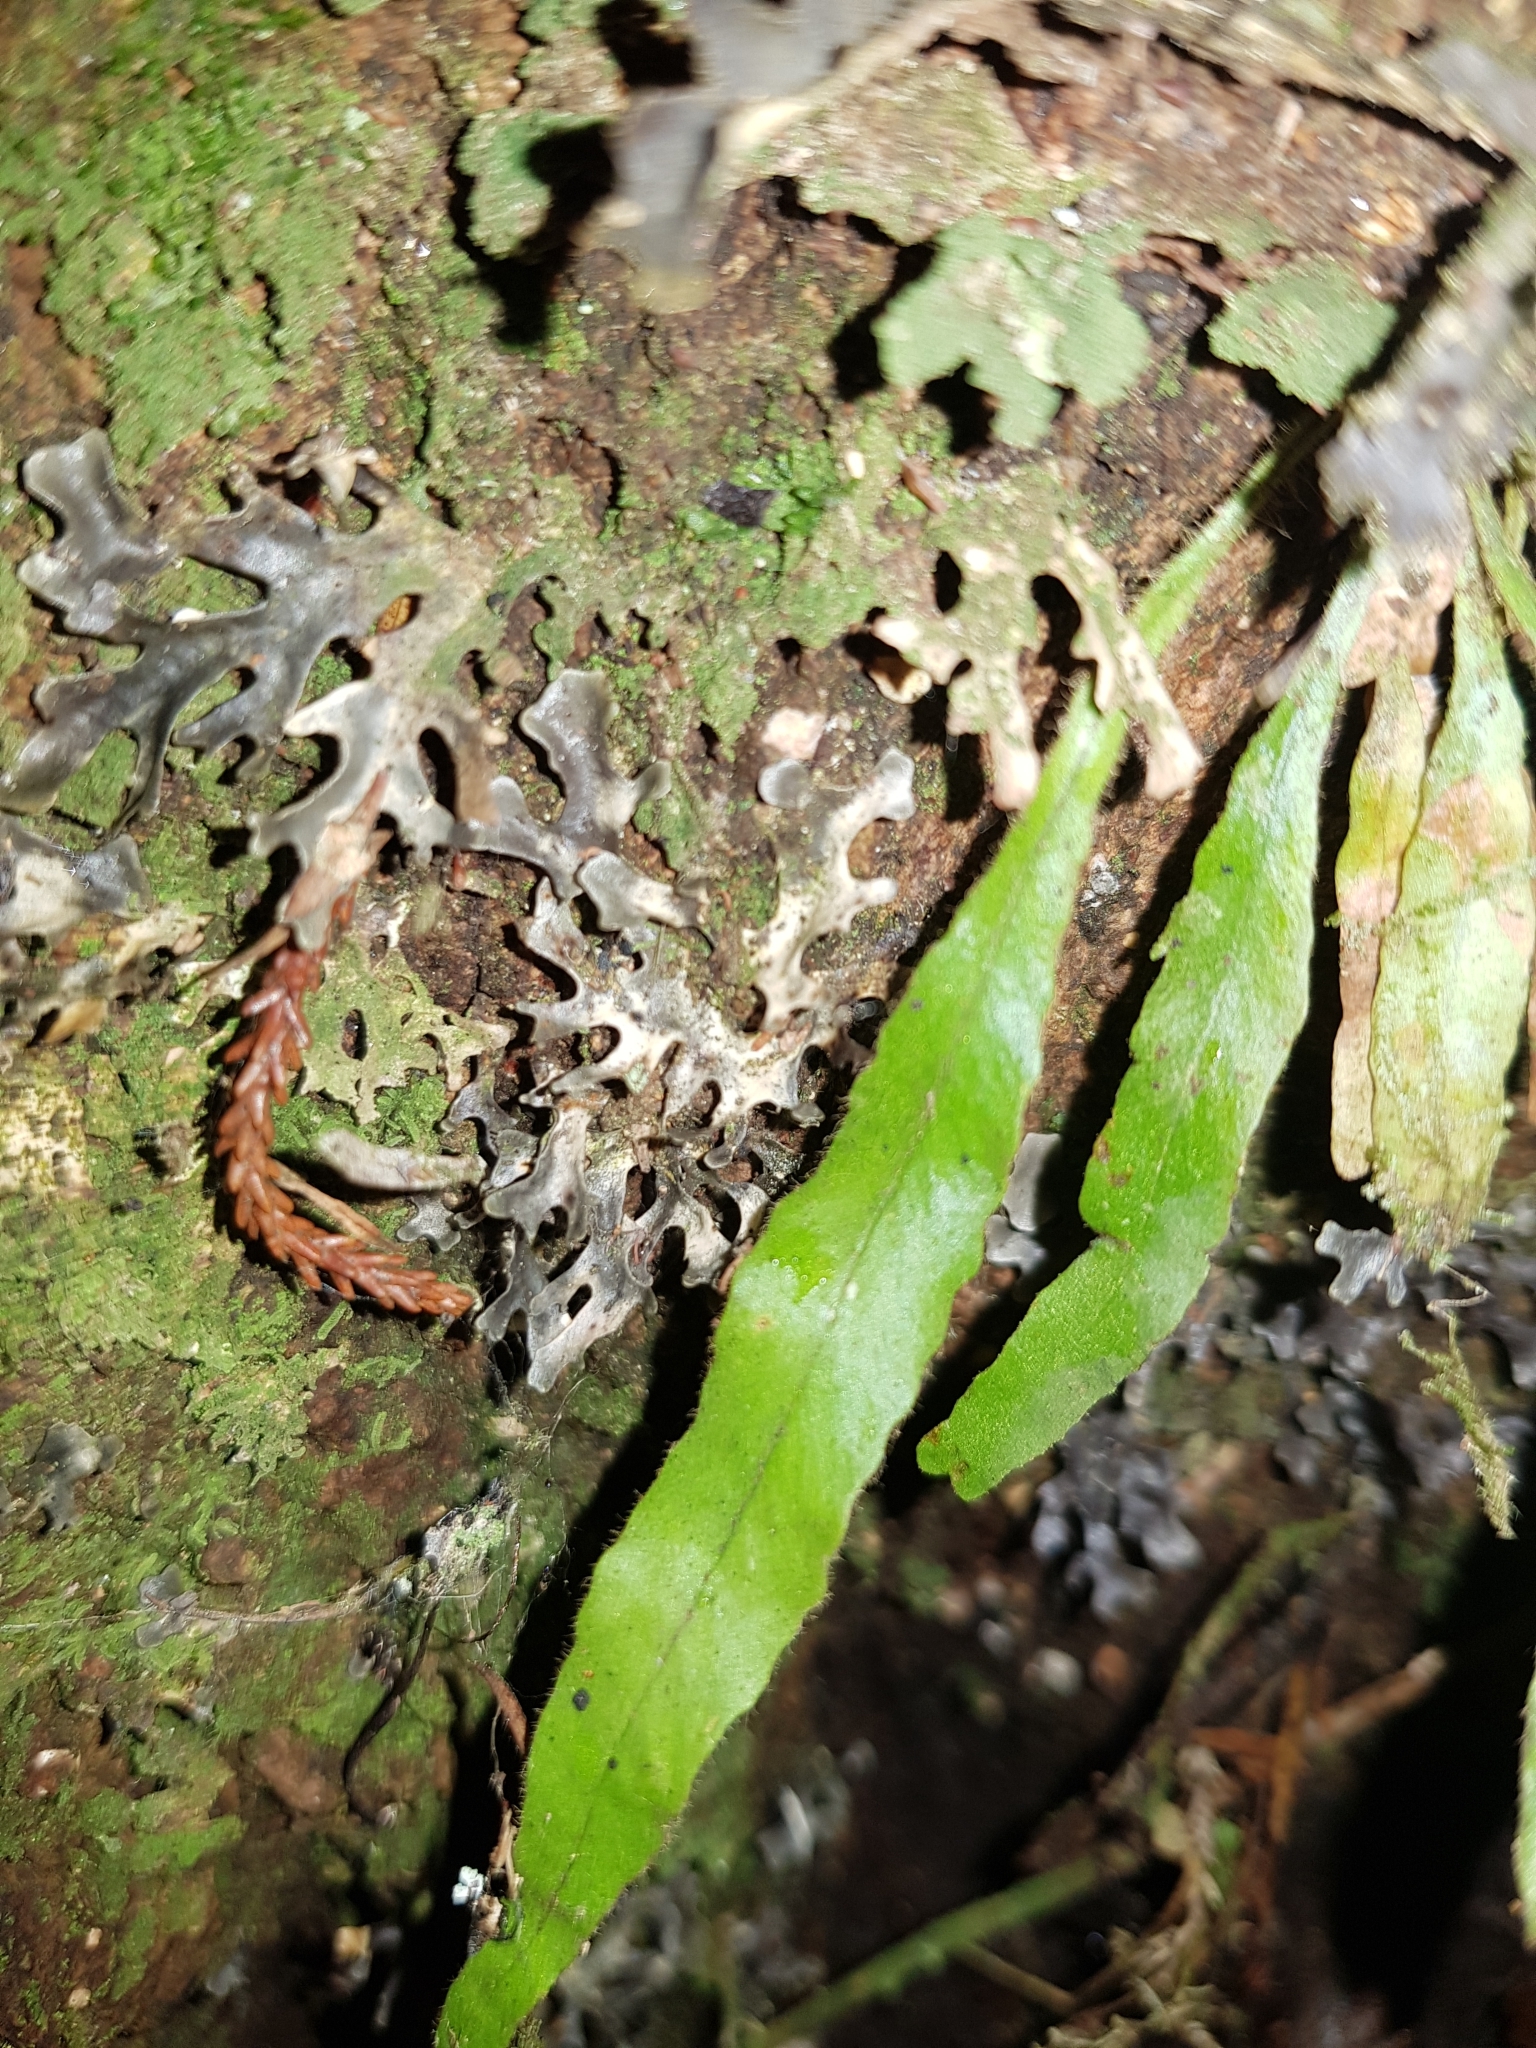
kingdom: Plantae
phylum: Tracheophyta
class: Polypodiopsida
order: Polypodiales
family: Polypodiaceae
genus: Notogrammitis
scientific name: Notogrammitis pseudociliata
